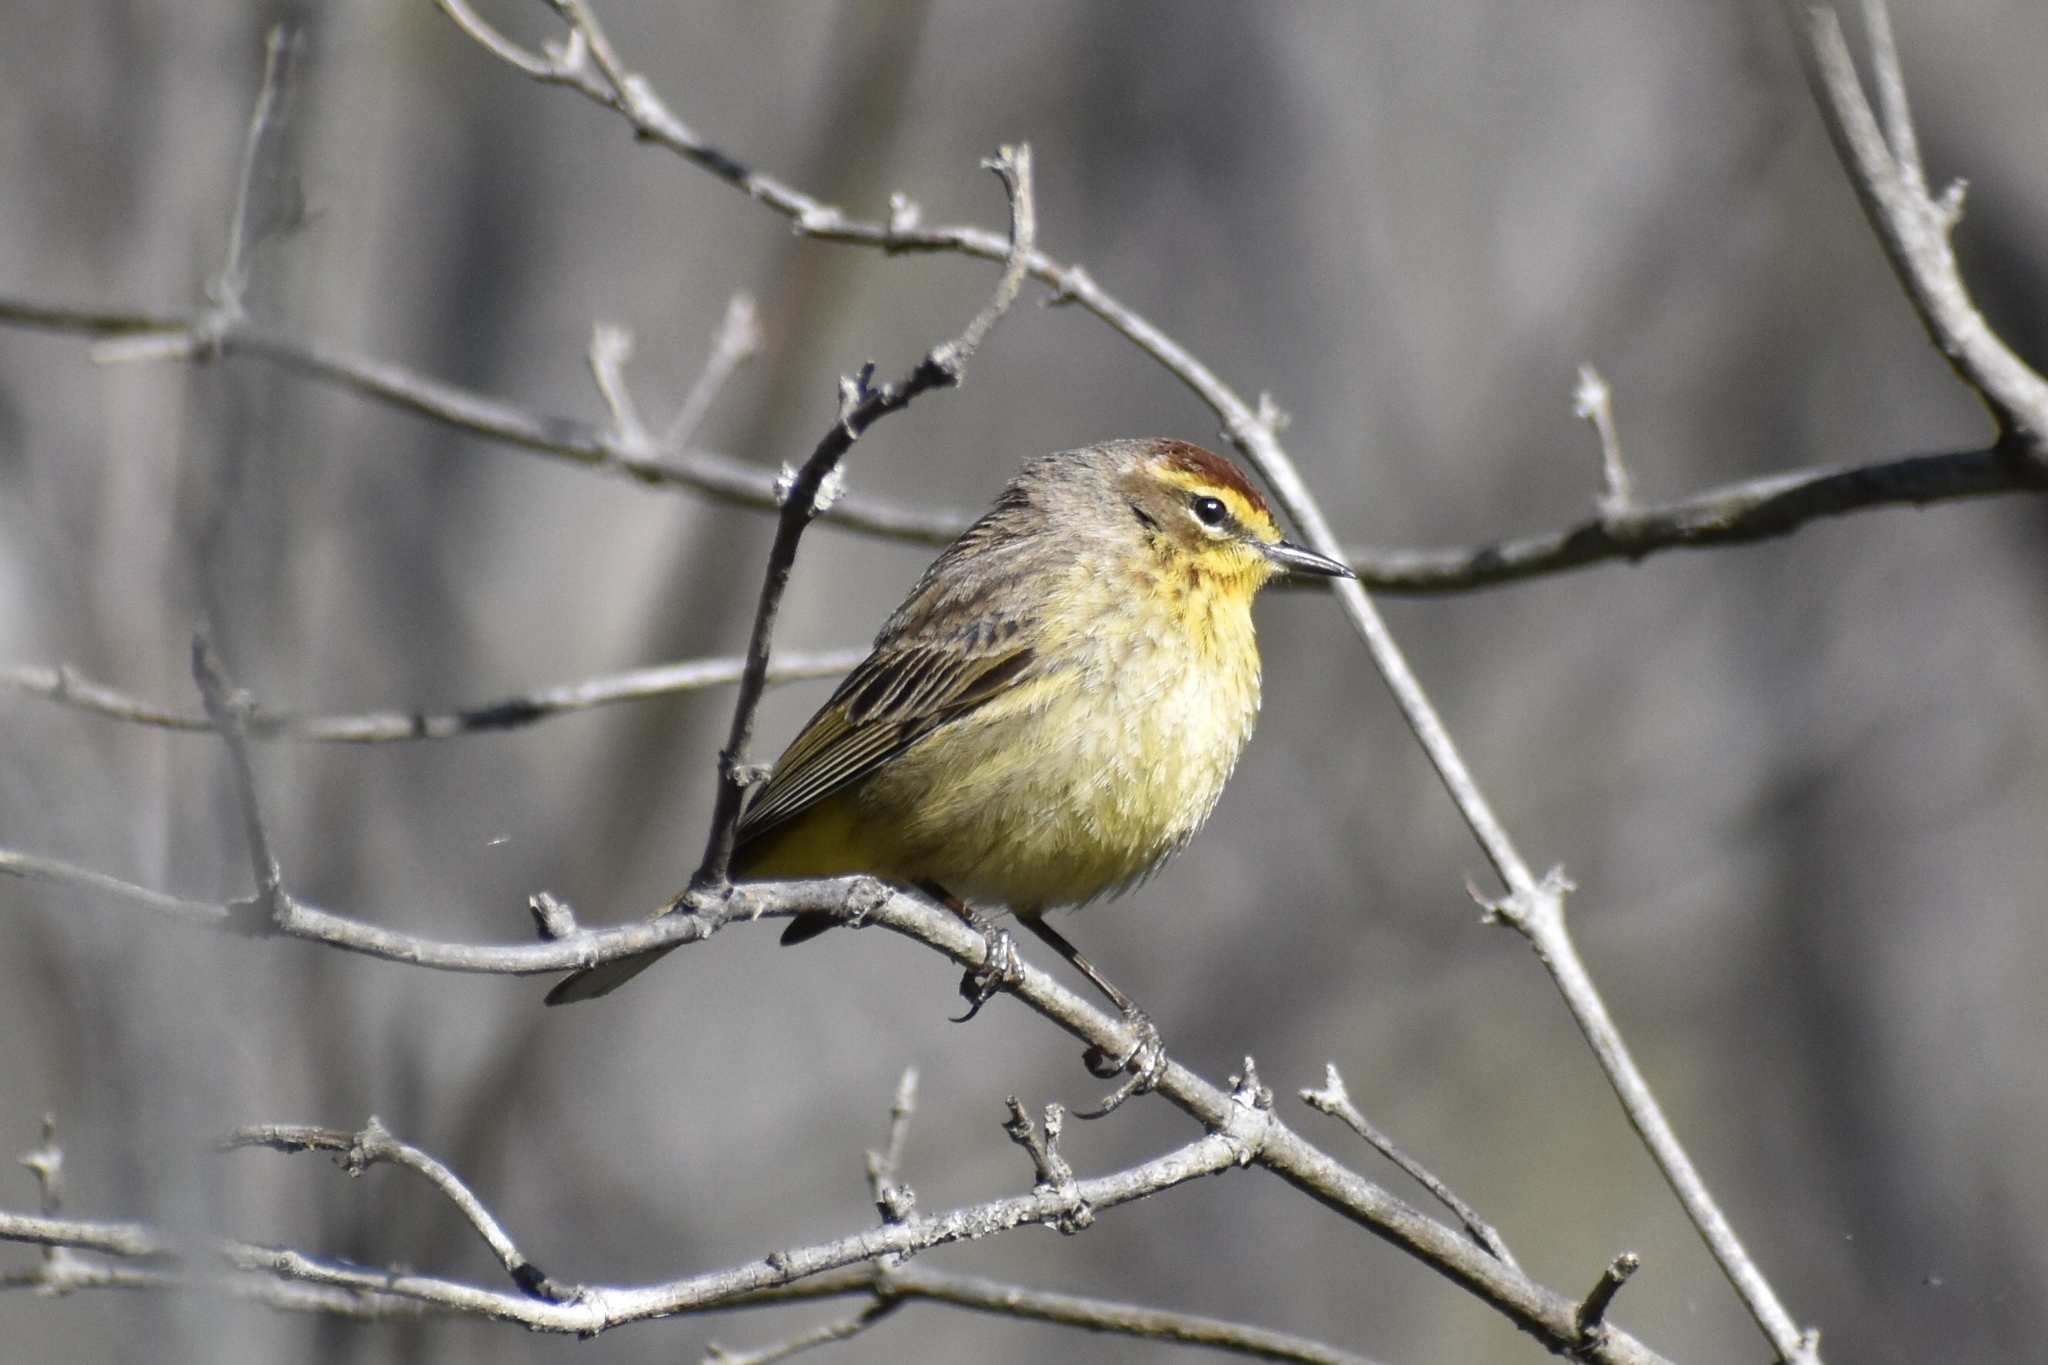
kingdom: Animalia
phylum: Chordata
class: Aves
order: Passeriformes
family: Parulidae
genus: Setophaga
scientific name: Setophaga palmarum
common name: Palm warbler
